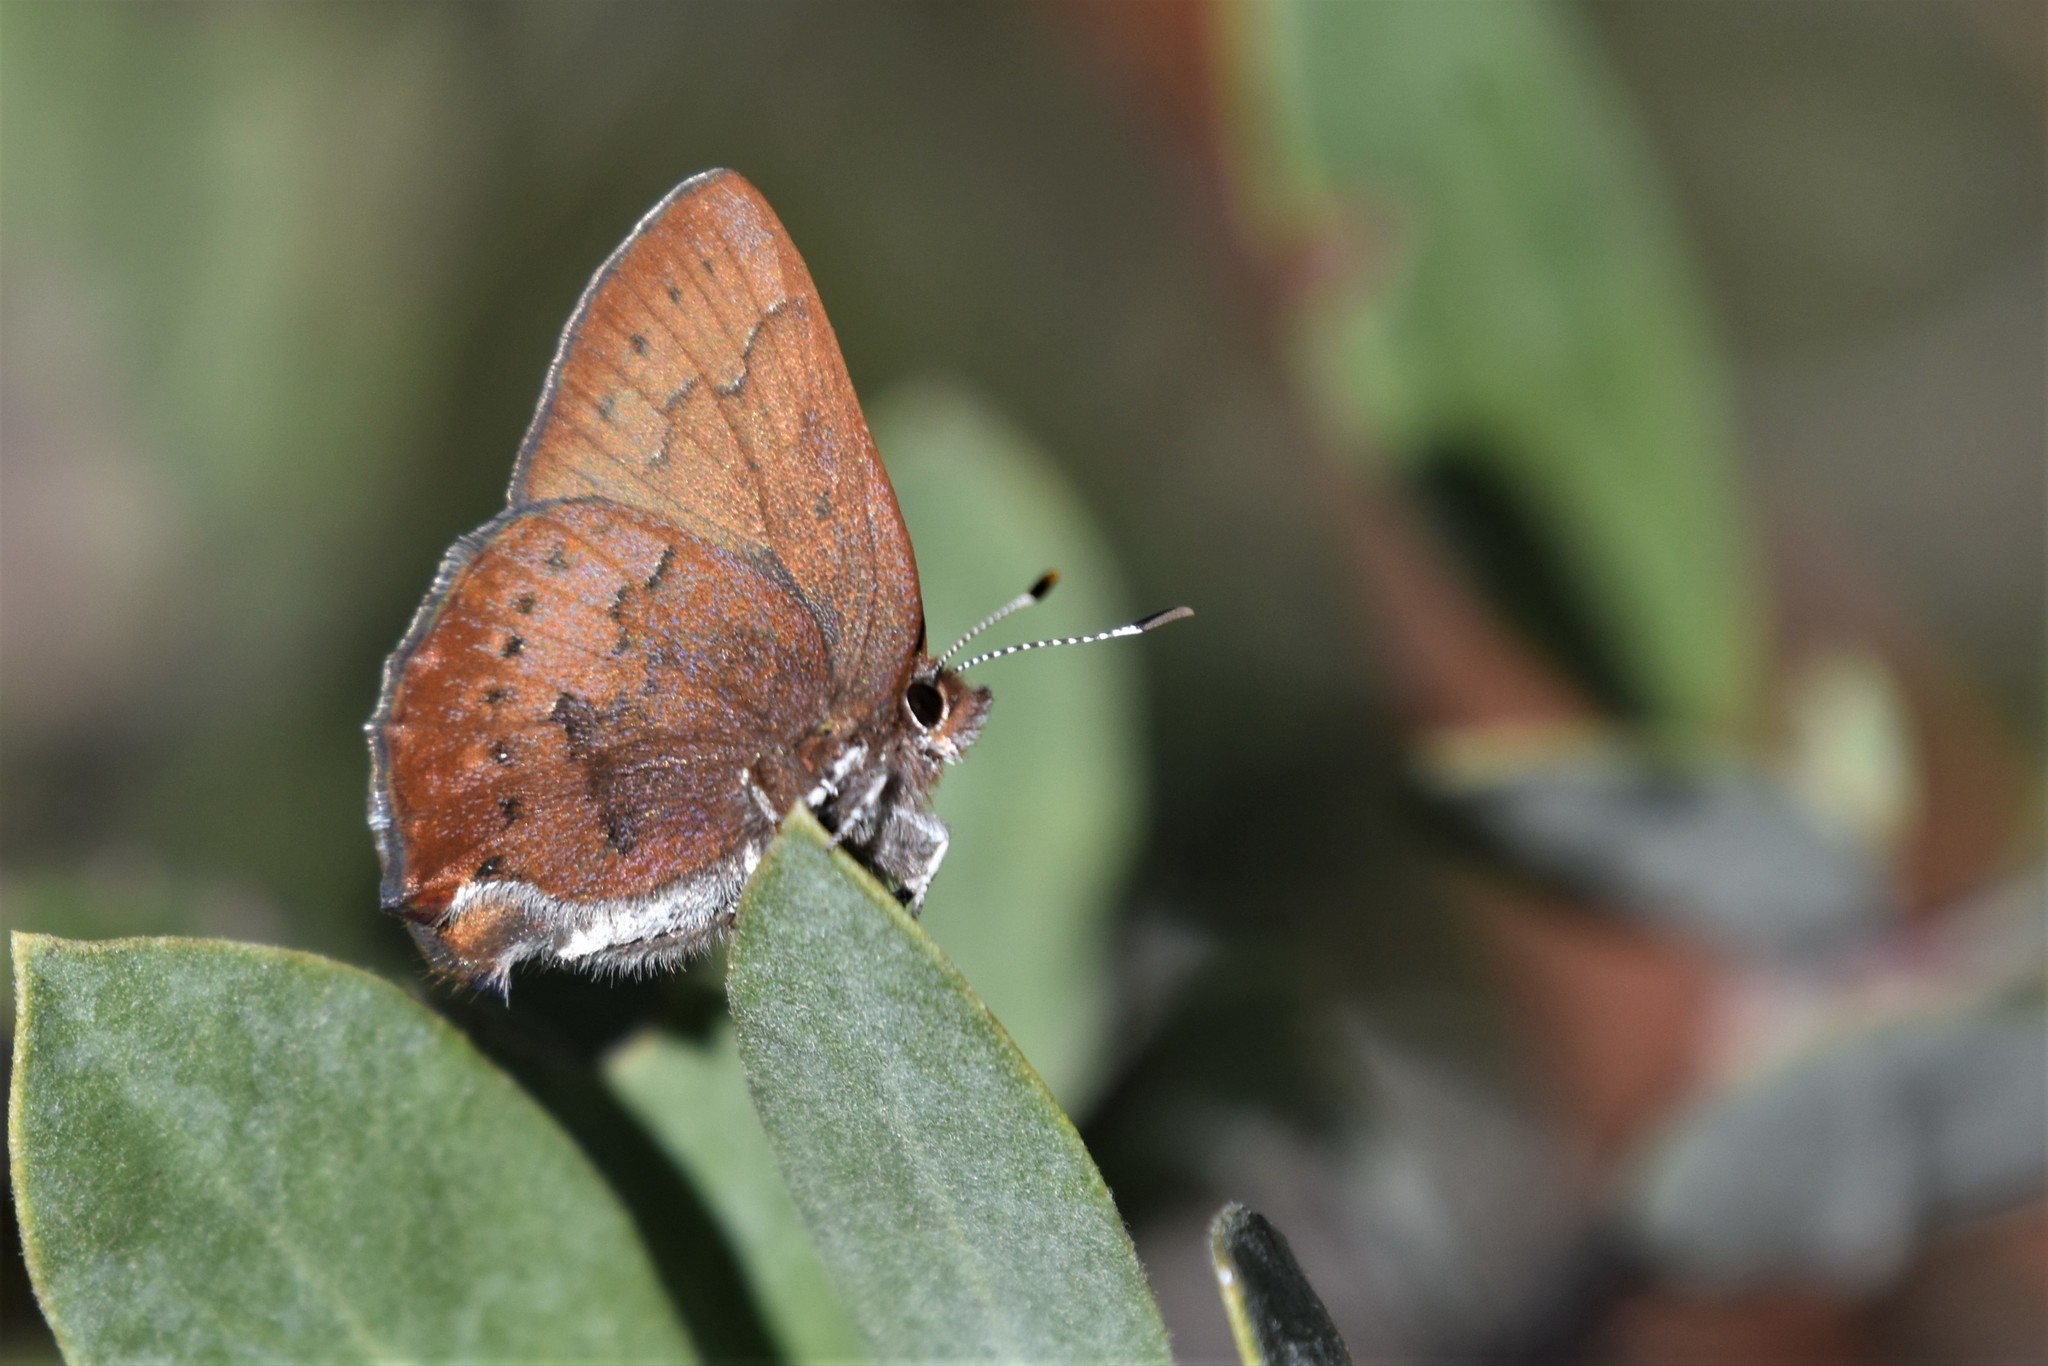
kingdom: Animalia
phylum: Arthropoda
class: Insecta
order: Lepidoptera
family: Lycaenidae
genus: Incisalia
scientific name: Incisalia irioides
